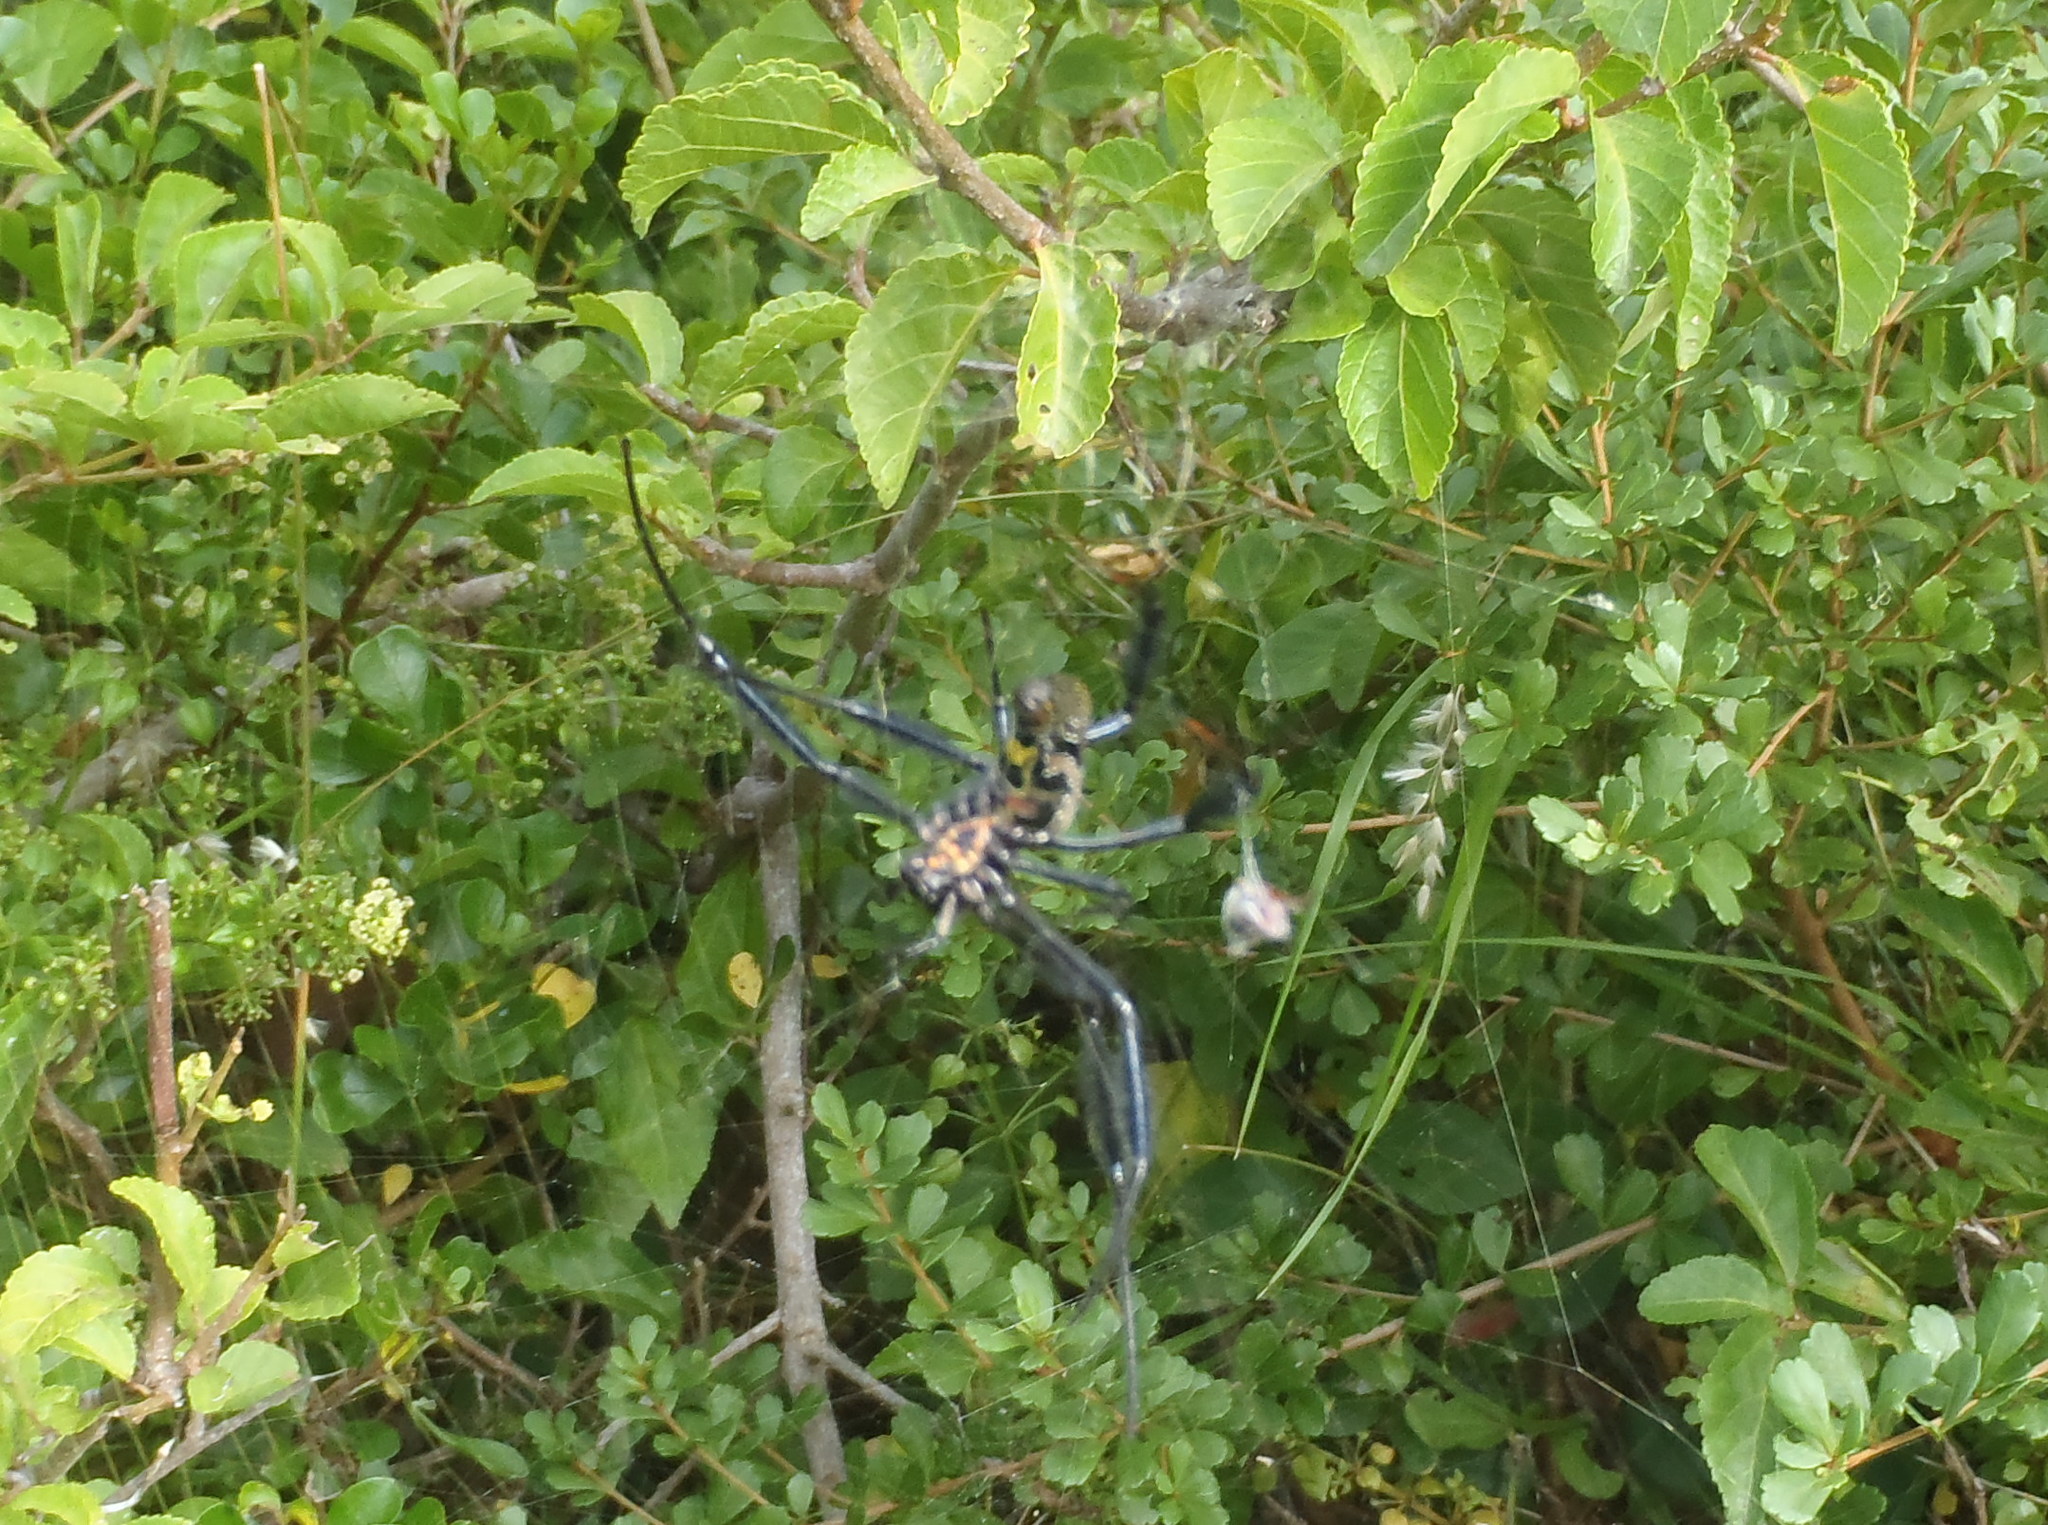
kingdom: Animalia
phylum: Arthropoda
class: Arachnida
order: Araneae
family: Araneidae
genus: Trichonephila
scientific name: Trichonephila fenestrata
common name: Hairy golden orb weaver
